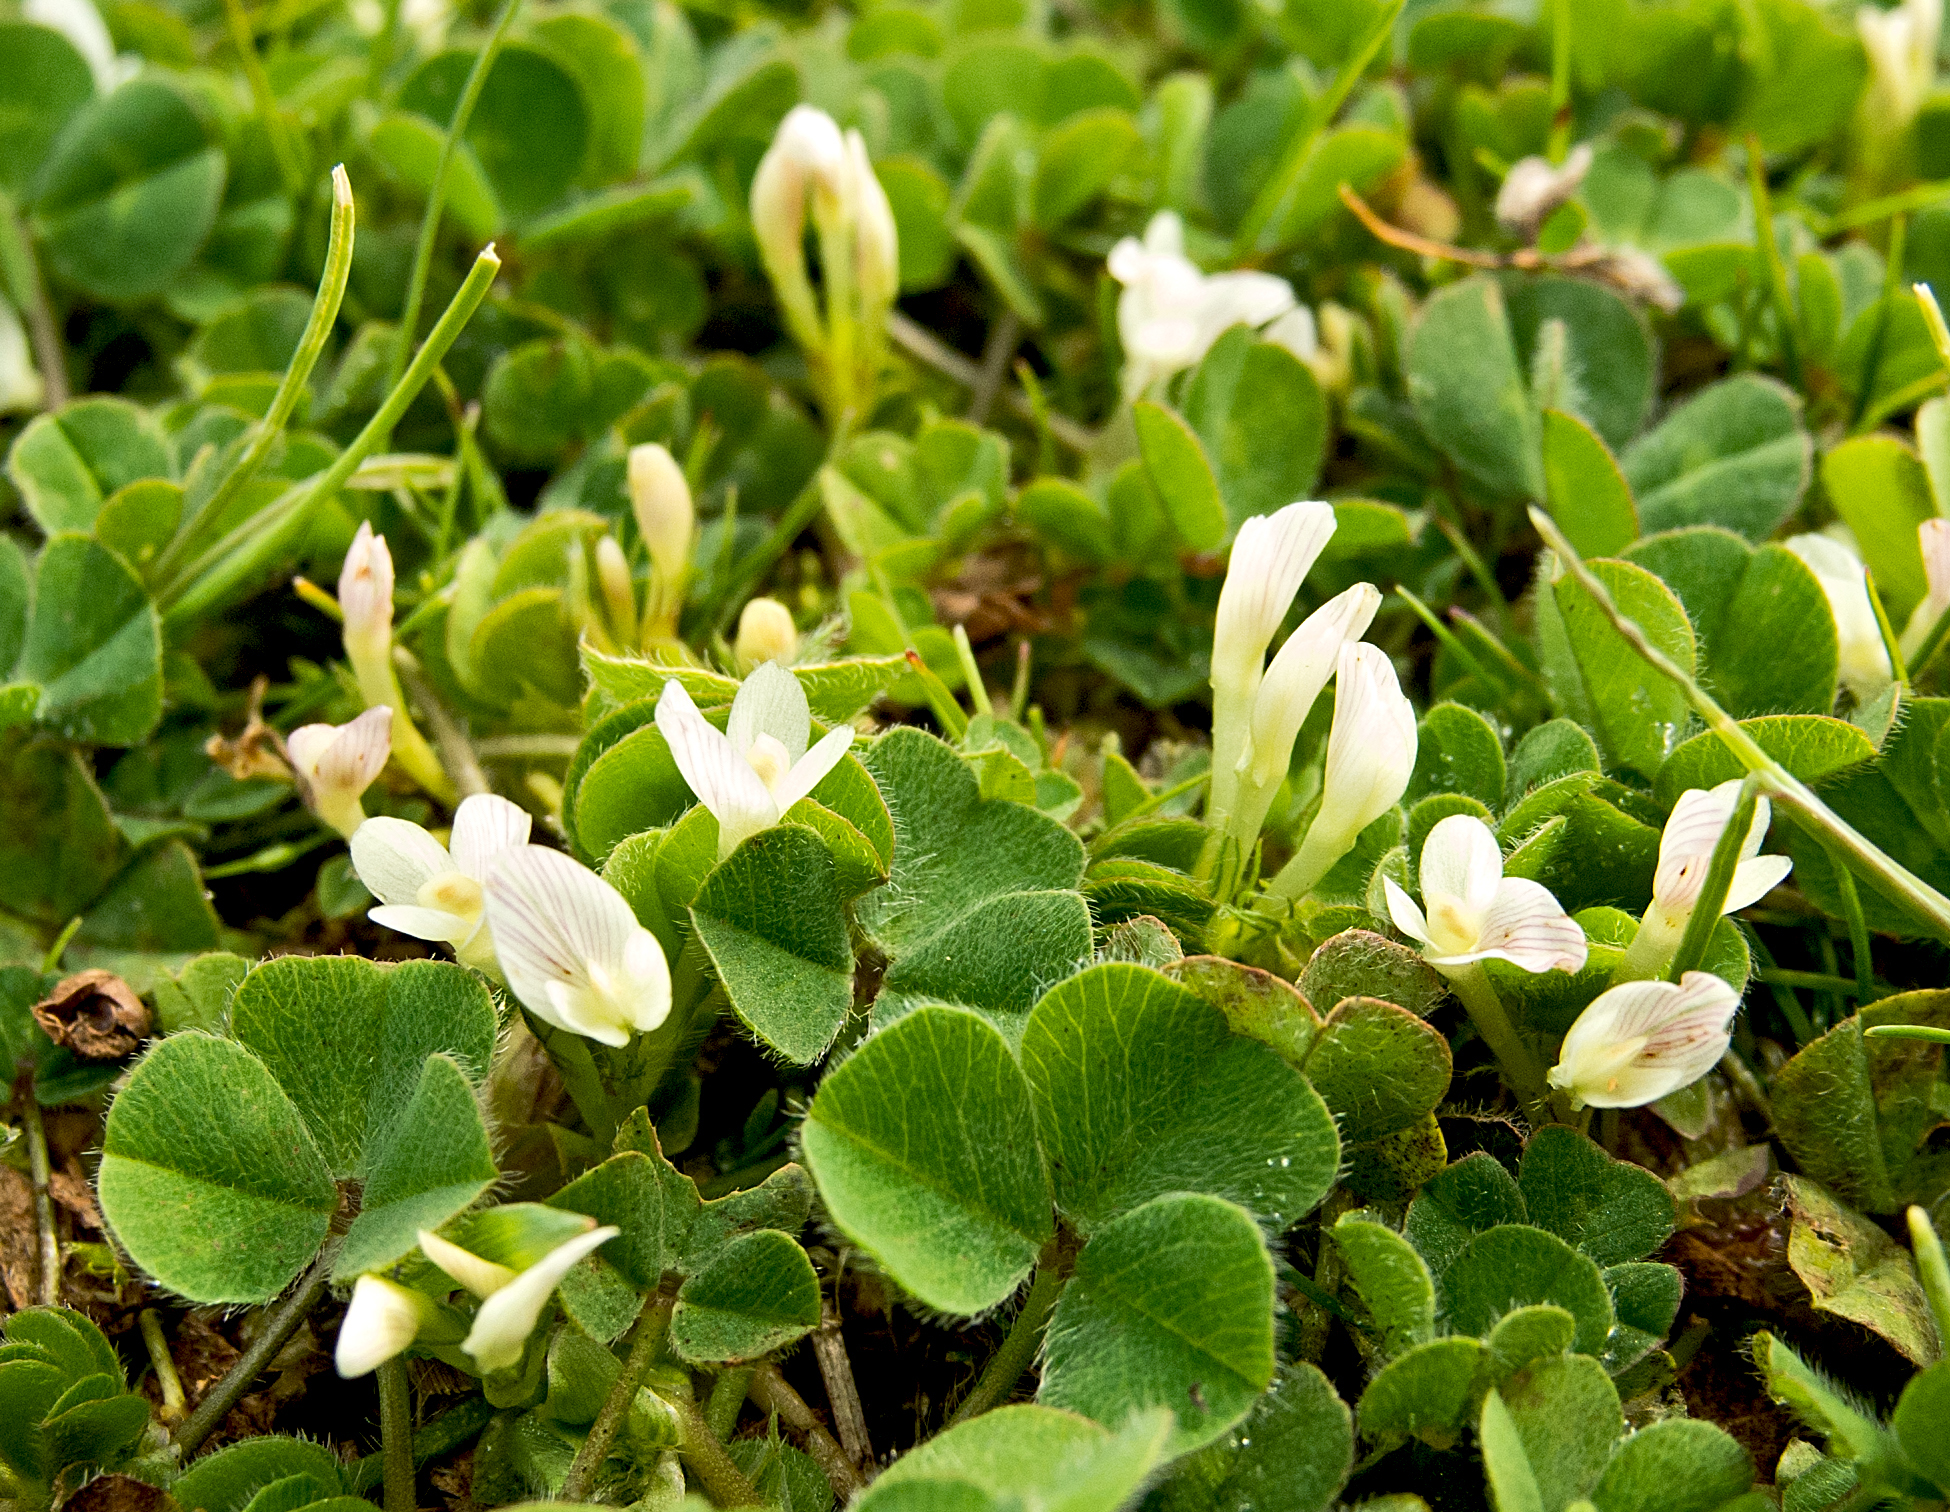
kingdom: Plantae
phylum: Tracheophyta
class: Magnoliopsida
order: Fabales
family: Fabaceae
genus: Trifolium
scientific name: Trifolium subterraneum
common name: Subterranean clover
